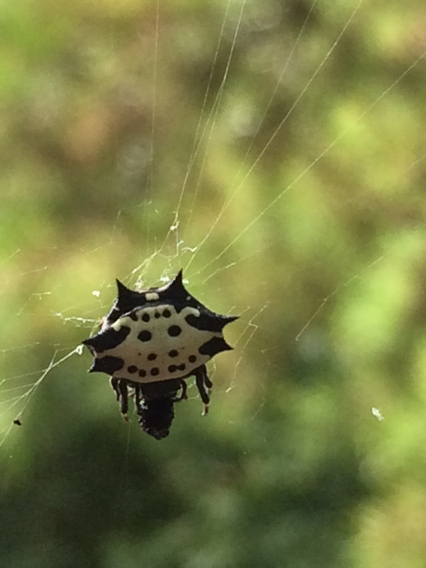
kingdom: Animalia
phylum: Arthropoda
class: Arachnida
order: Araneae
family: Araneidae
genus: Gasteracantha
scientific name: Gasteracantha cancriformis
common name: Orb weavers
